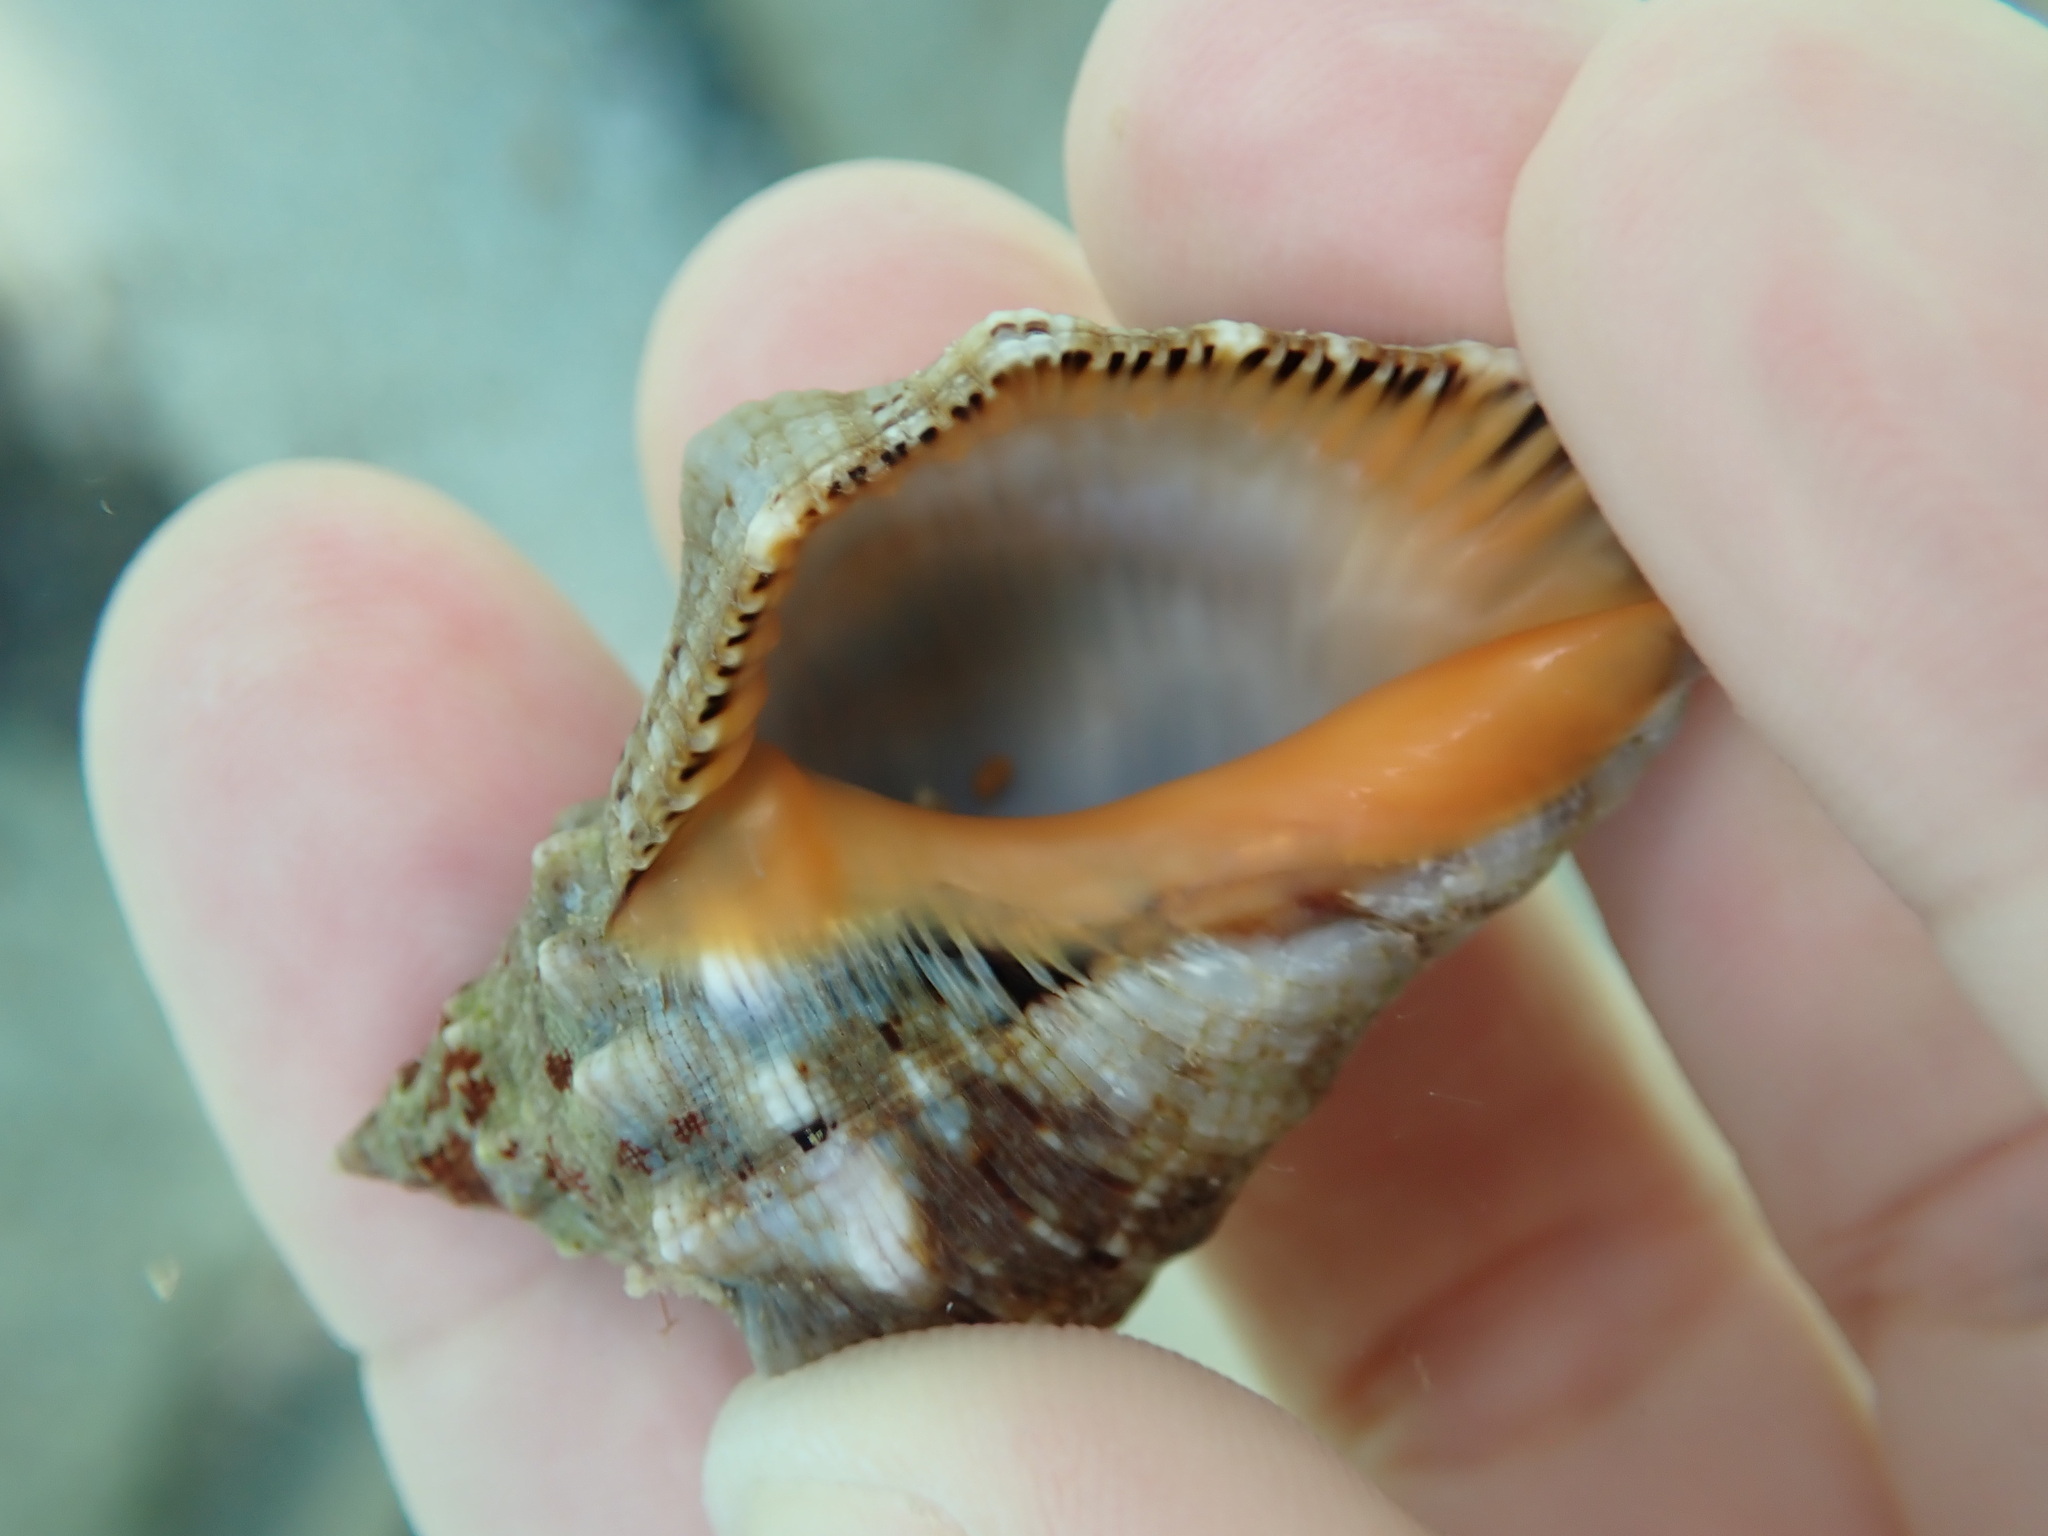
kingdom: Animalia
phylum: Mollusca
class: Gastropoda
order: Neogastropoda
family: Muricidae
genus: Stramonita
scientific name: Stramonita haemastoma
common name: Florida dog winkle
